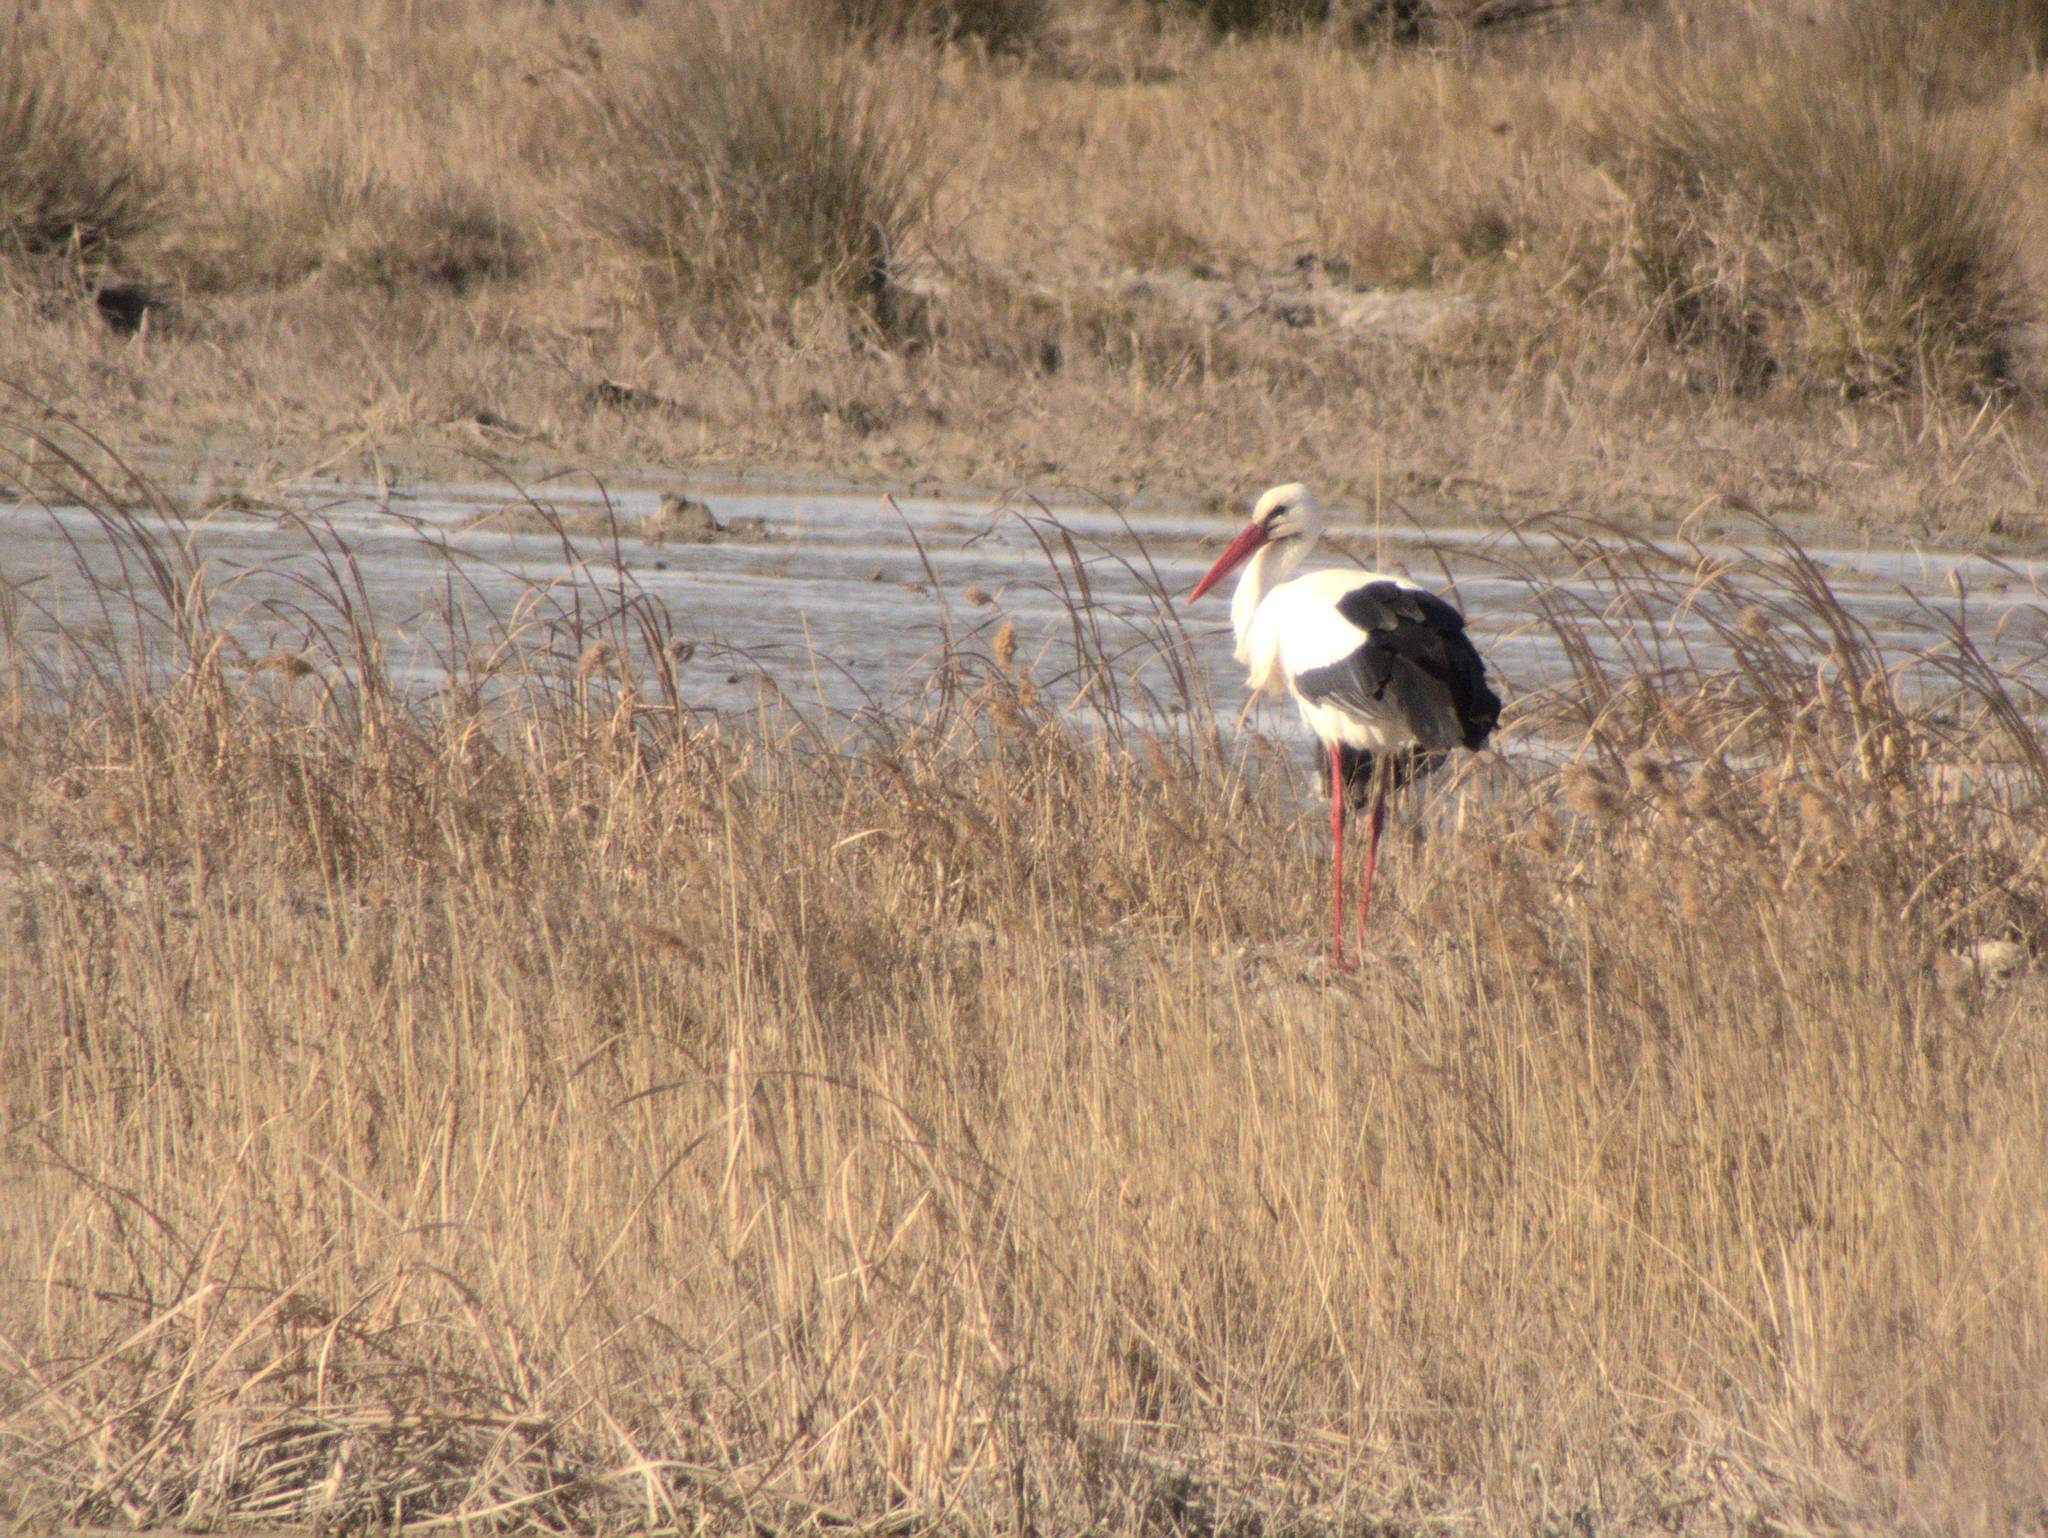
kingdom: Animalia
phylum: Chordata
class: Aves
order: Ciconiiformes
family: Ciconiidae
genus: Ciconia
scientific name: Ciconia ciconia
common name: White stork
